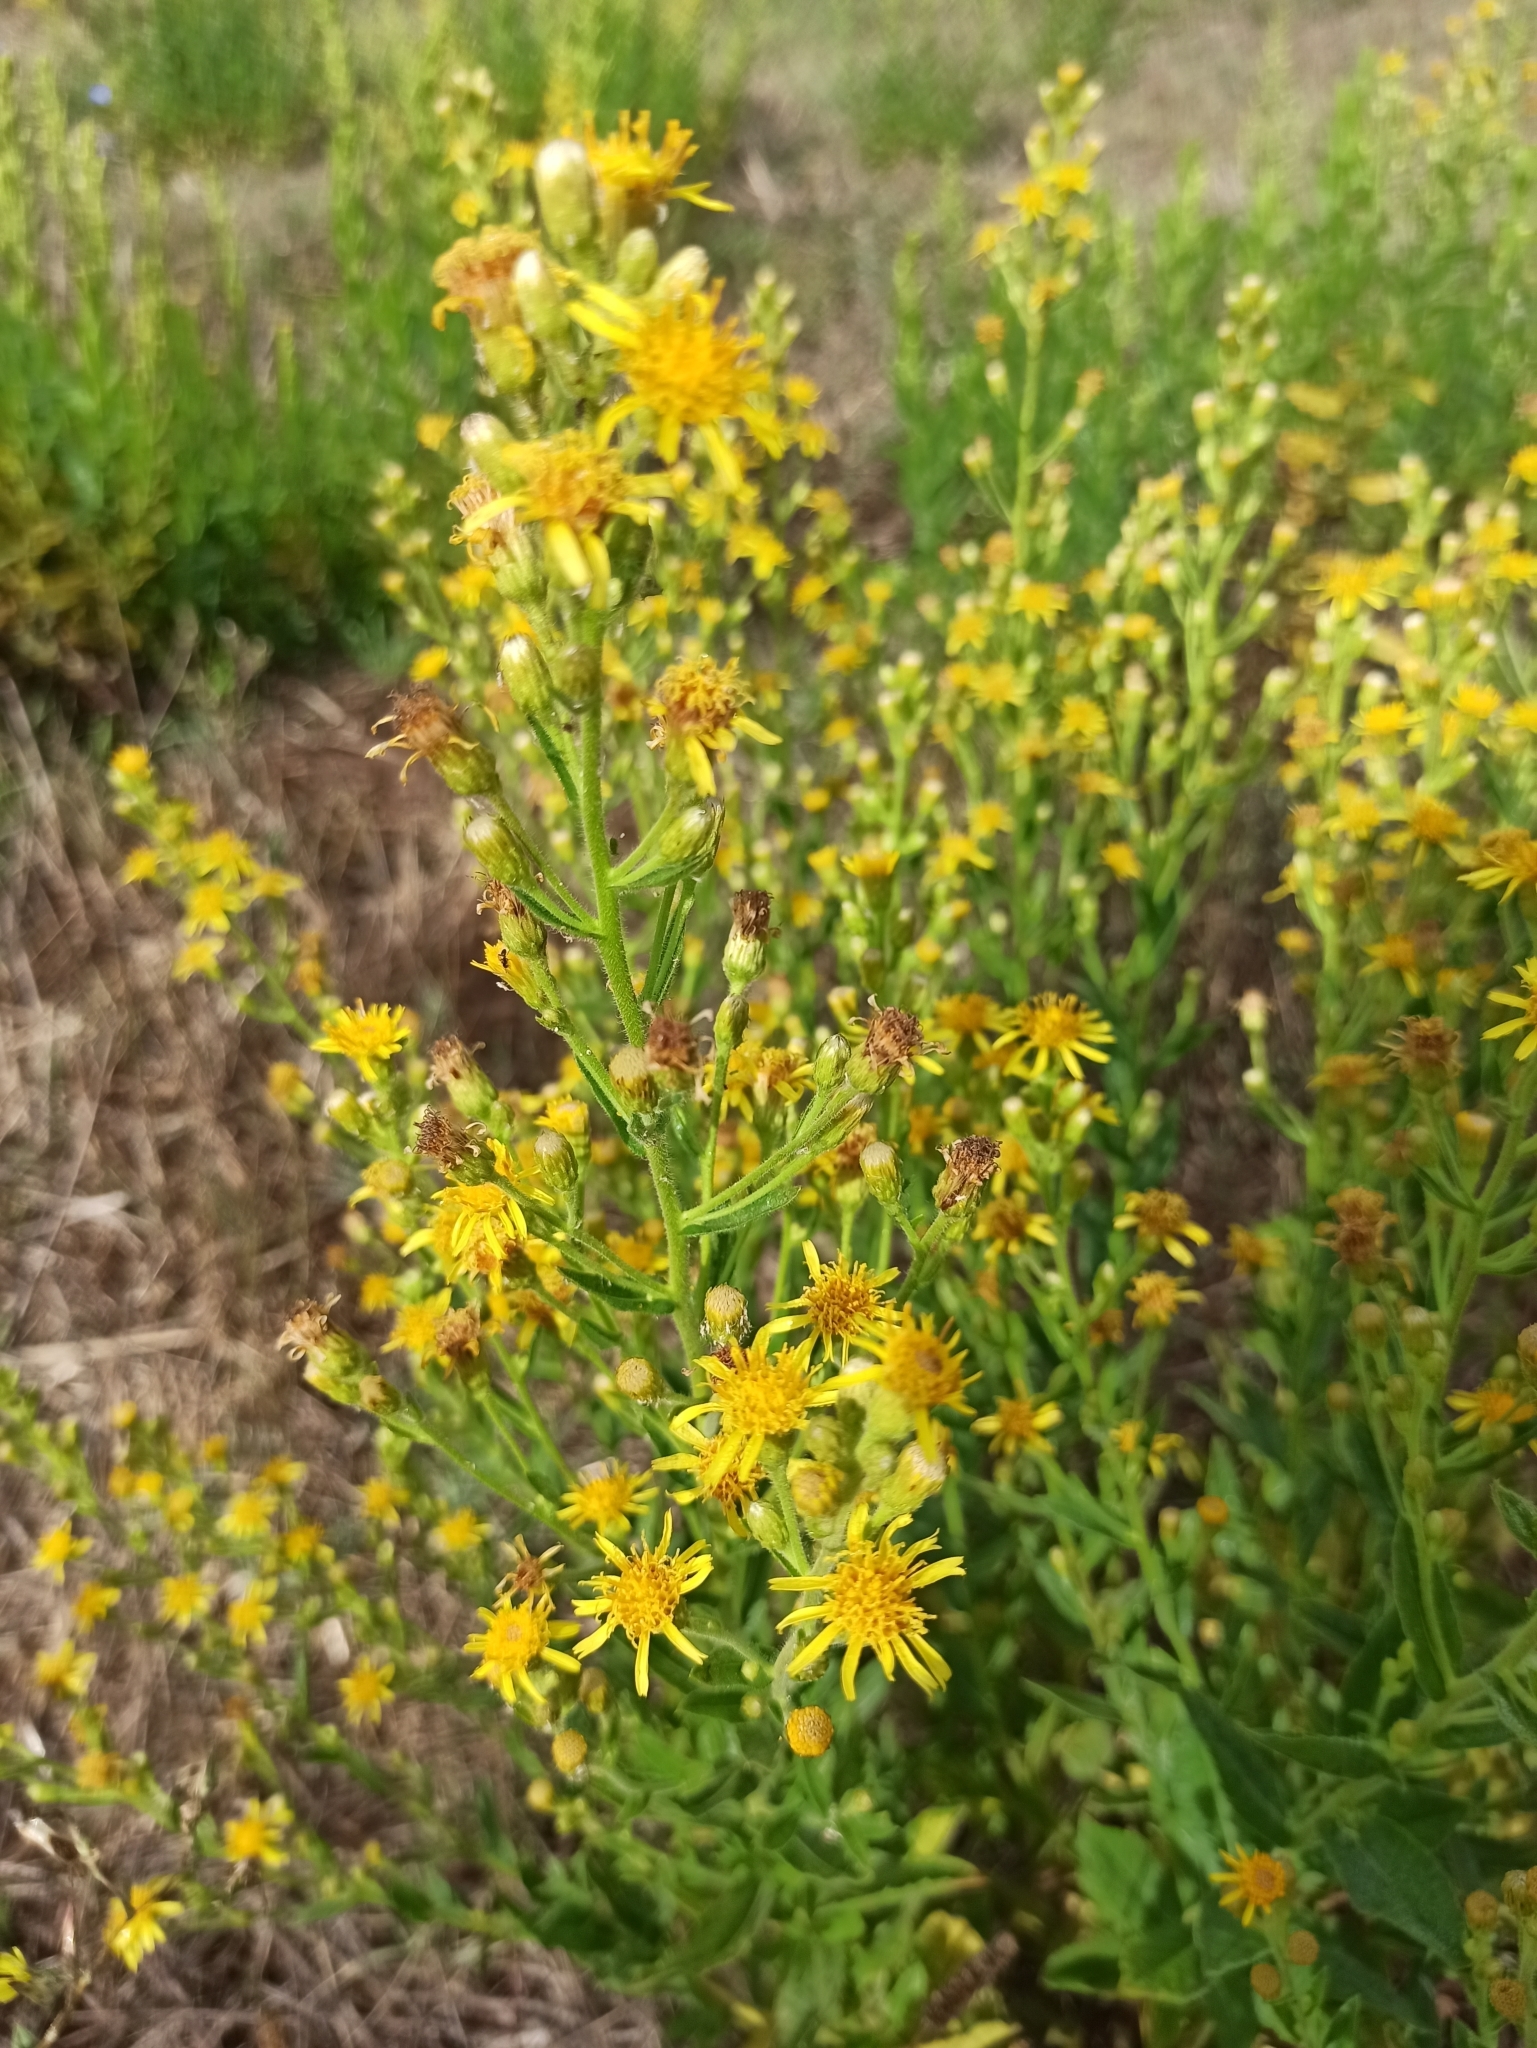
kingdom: Plantae
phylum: Tracheophyta
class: Magnoliopsida
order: Asterales
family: Asteraceae
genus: Dittrichia
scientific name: Dittrichia viscosa
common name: Woody fleabane
